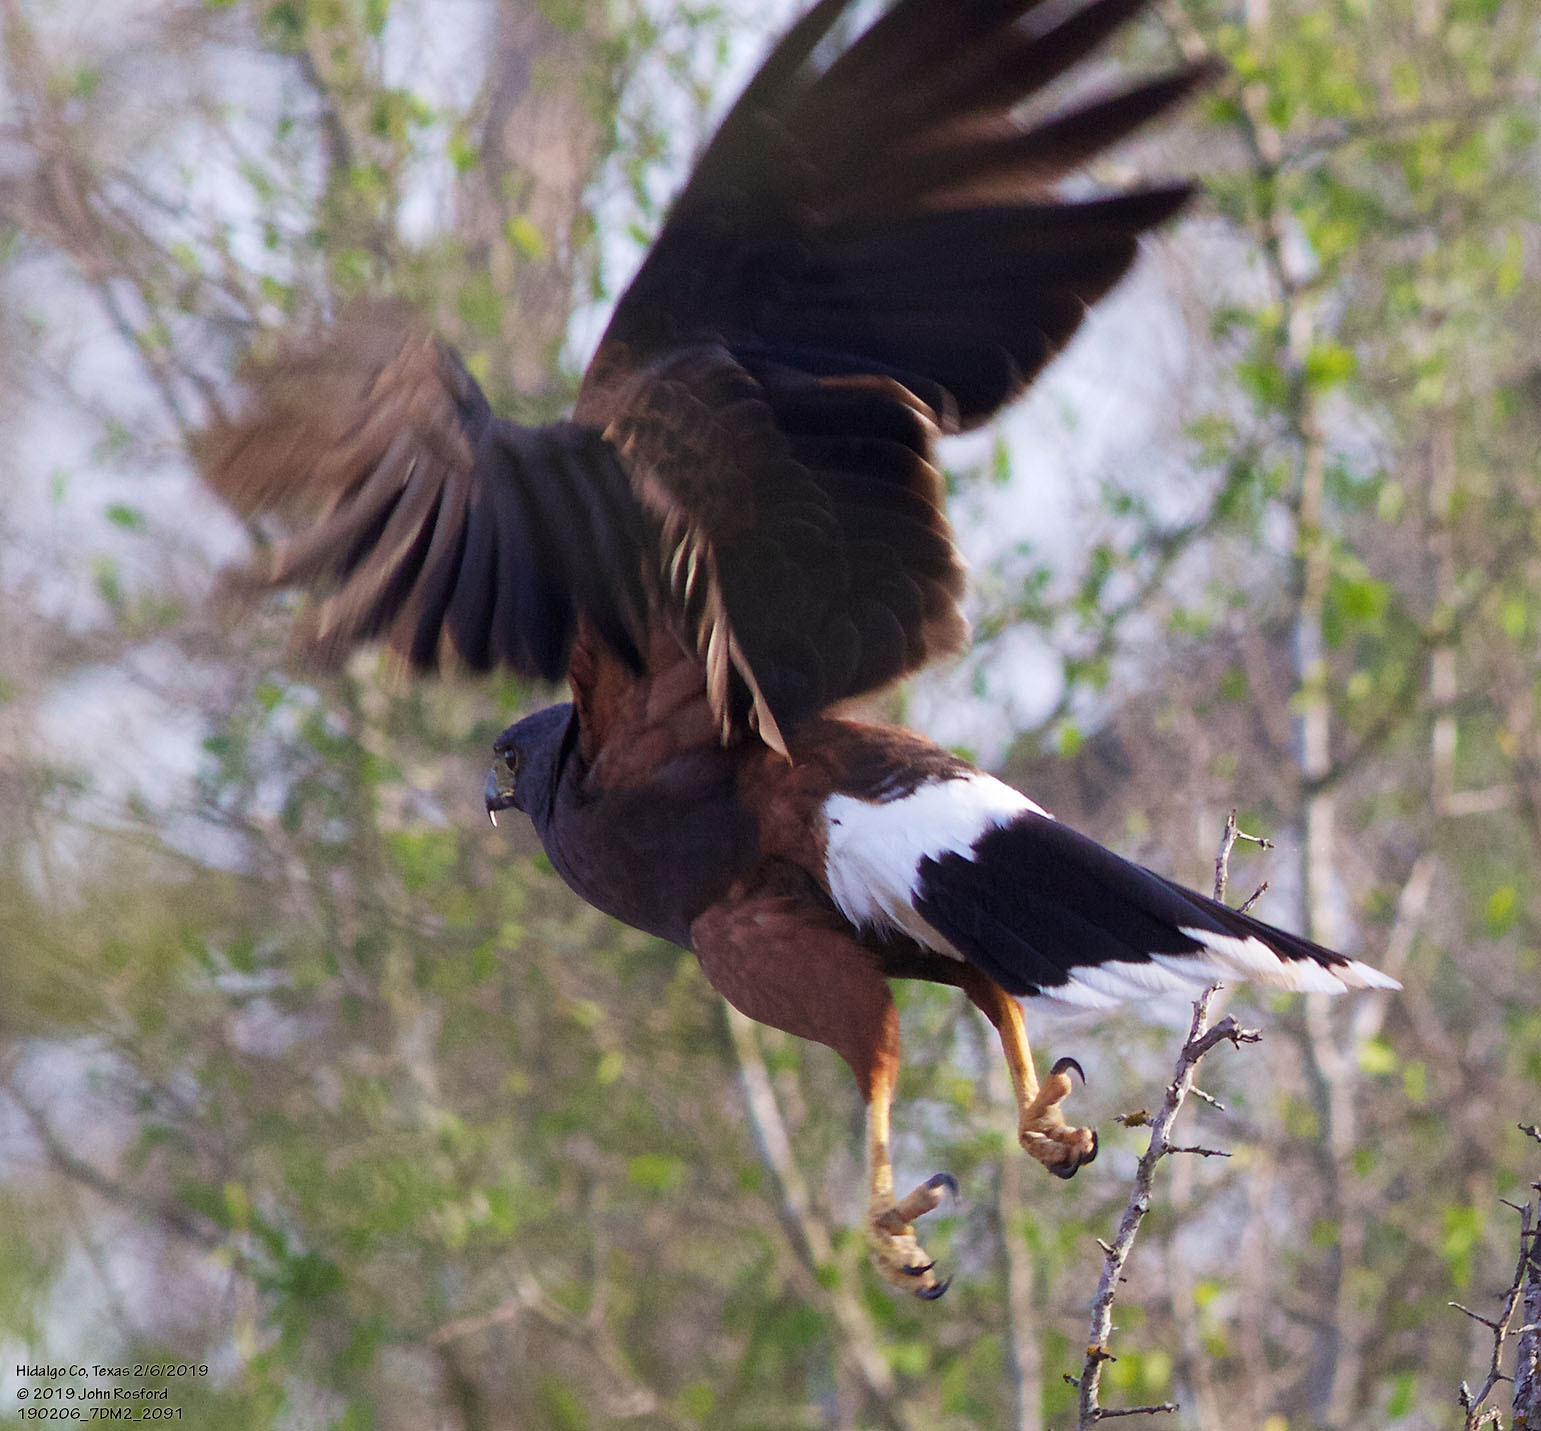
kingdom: Animalia
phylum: Chordata
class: Aves
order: Accipitriformes
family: Accipitridae
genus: Parabuteo
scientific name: Parabuteo unicinctus
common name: Harris's hawk
